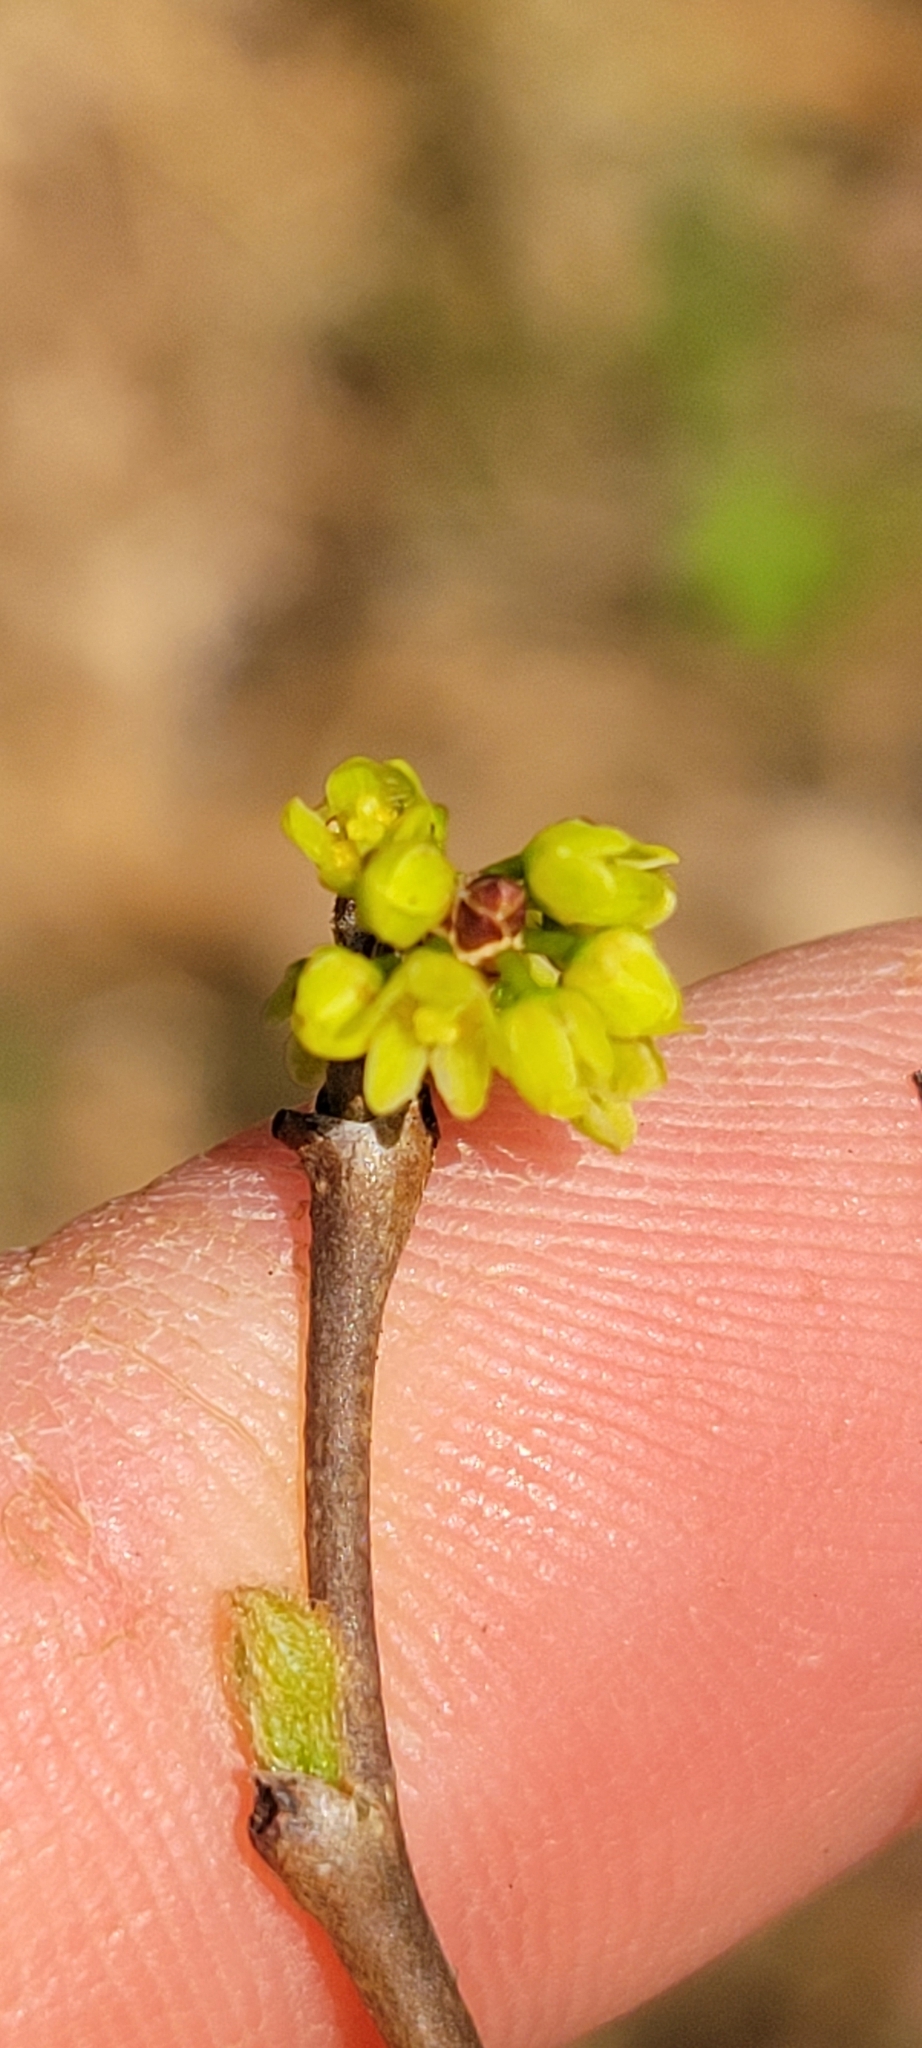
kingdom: Plantae
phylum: Tracheophyta
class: Magnoliopsida
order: Sapindales
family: Anacardiaceae
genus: Rhus
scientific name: Rhus aromatica
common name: Aromatic sumac
